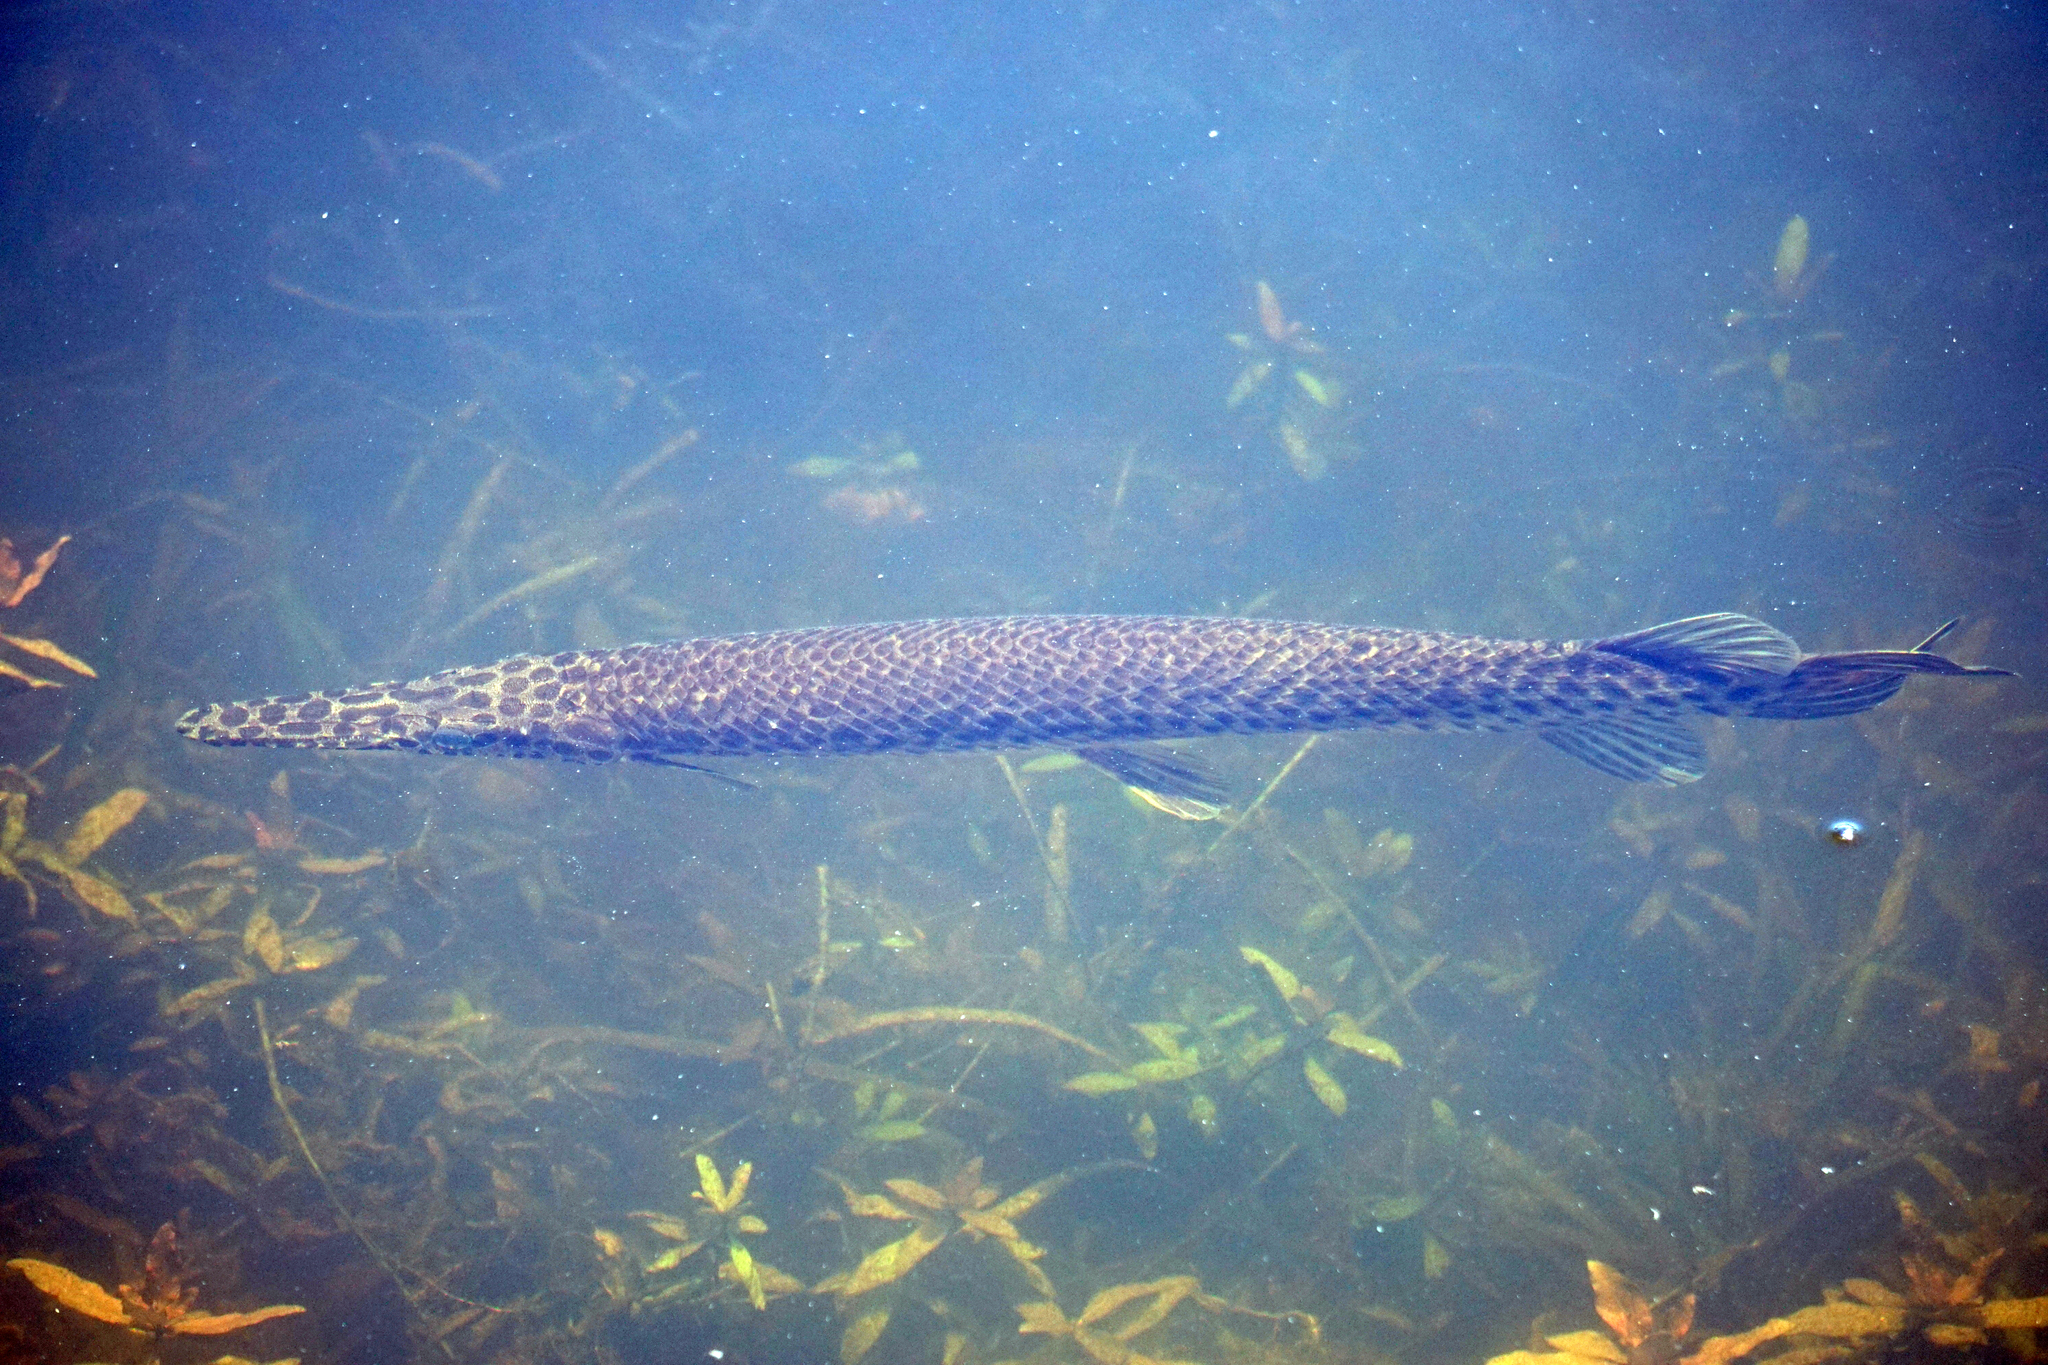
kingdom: Animalia
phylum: Chordata
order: Lepisosteiformes
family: Lepisosteidae
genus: Lepisosteus
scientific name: Lepisosteus platyrhincus
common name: Florida gar
